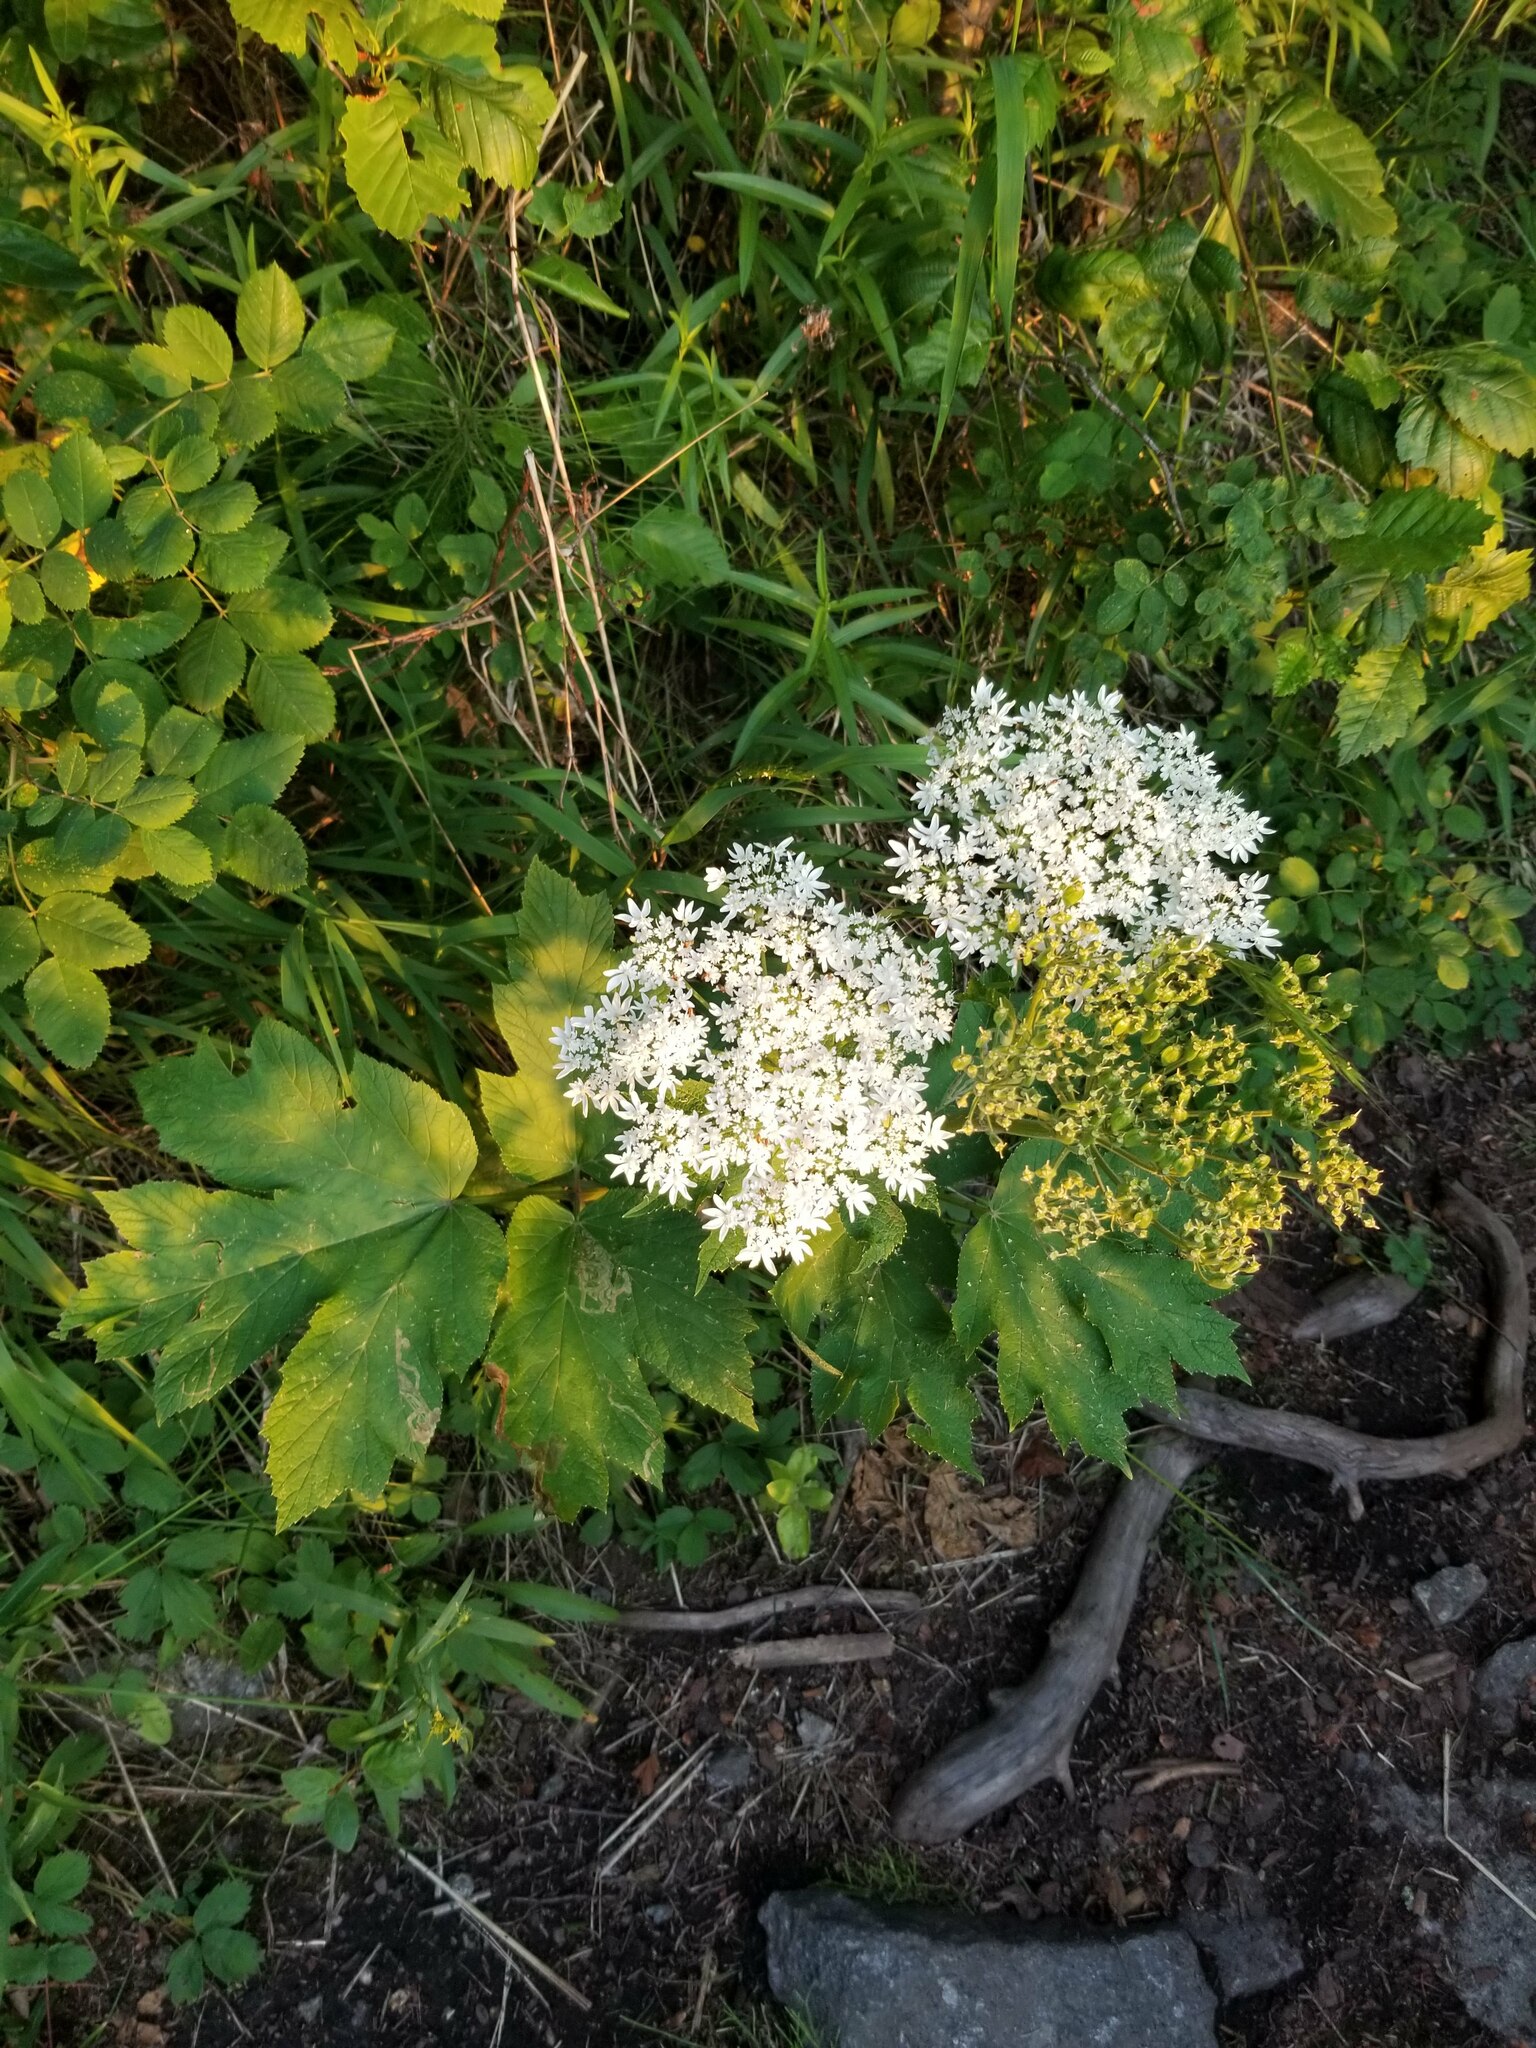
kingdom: Plantae
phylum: Tracheophyta
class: Magnoliopsida
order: Apiales
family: Apiaceae
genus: Heracleum
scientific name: Heracleum maximum
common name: American cow parsnip
